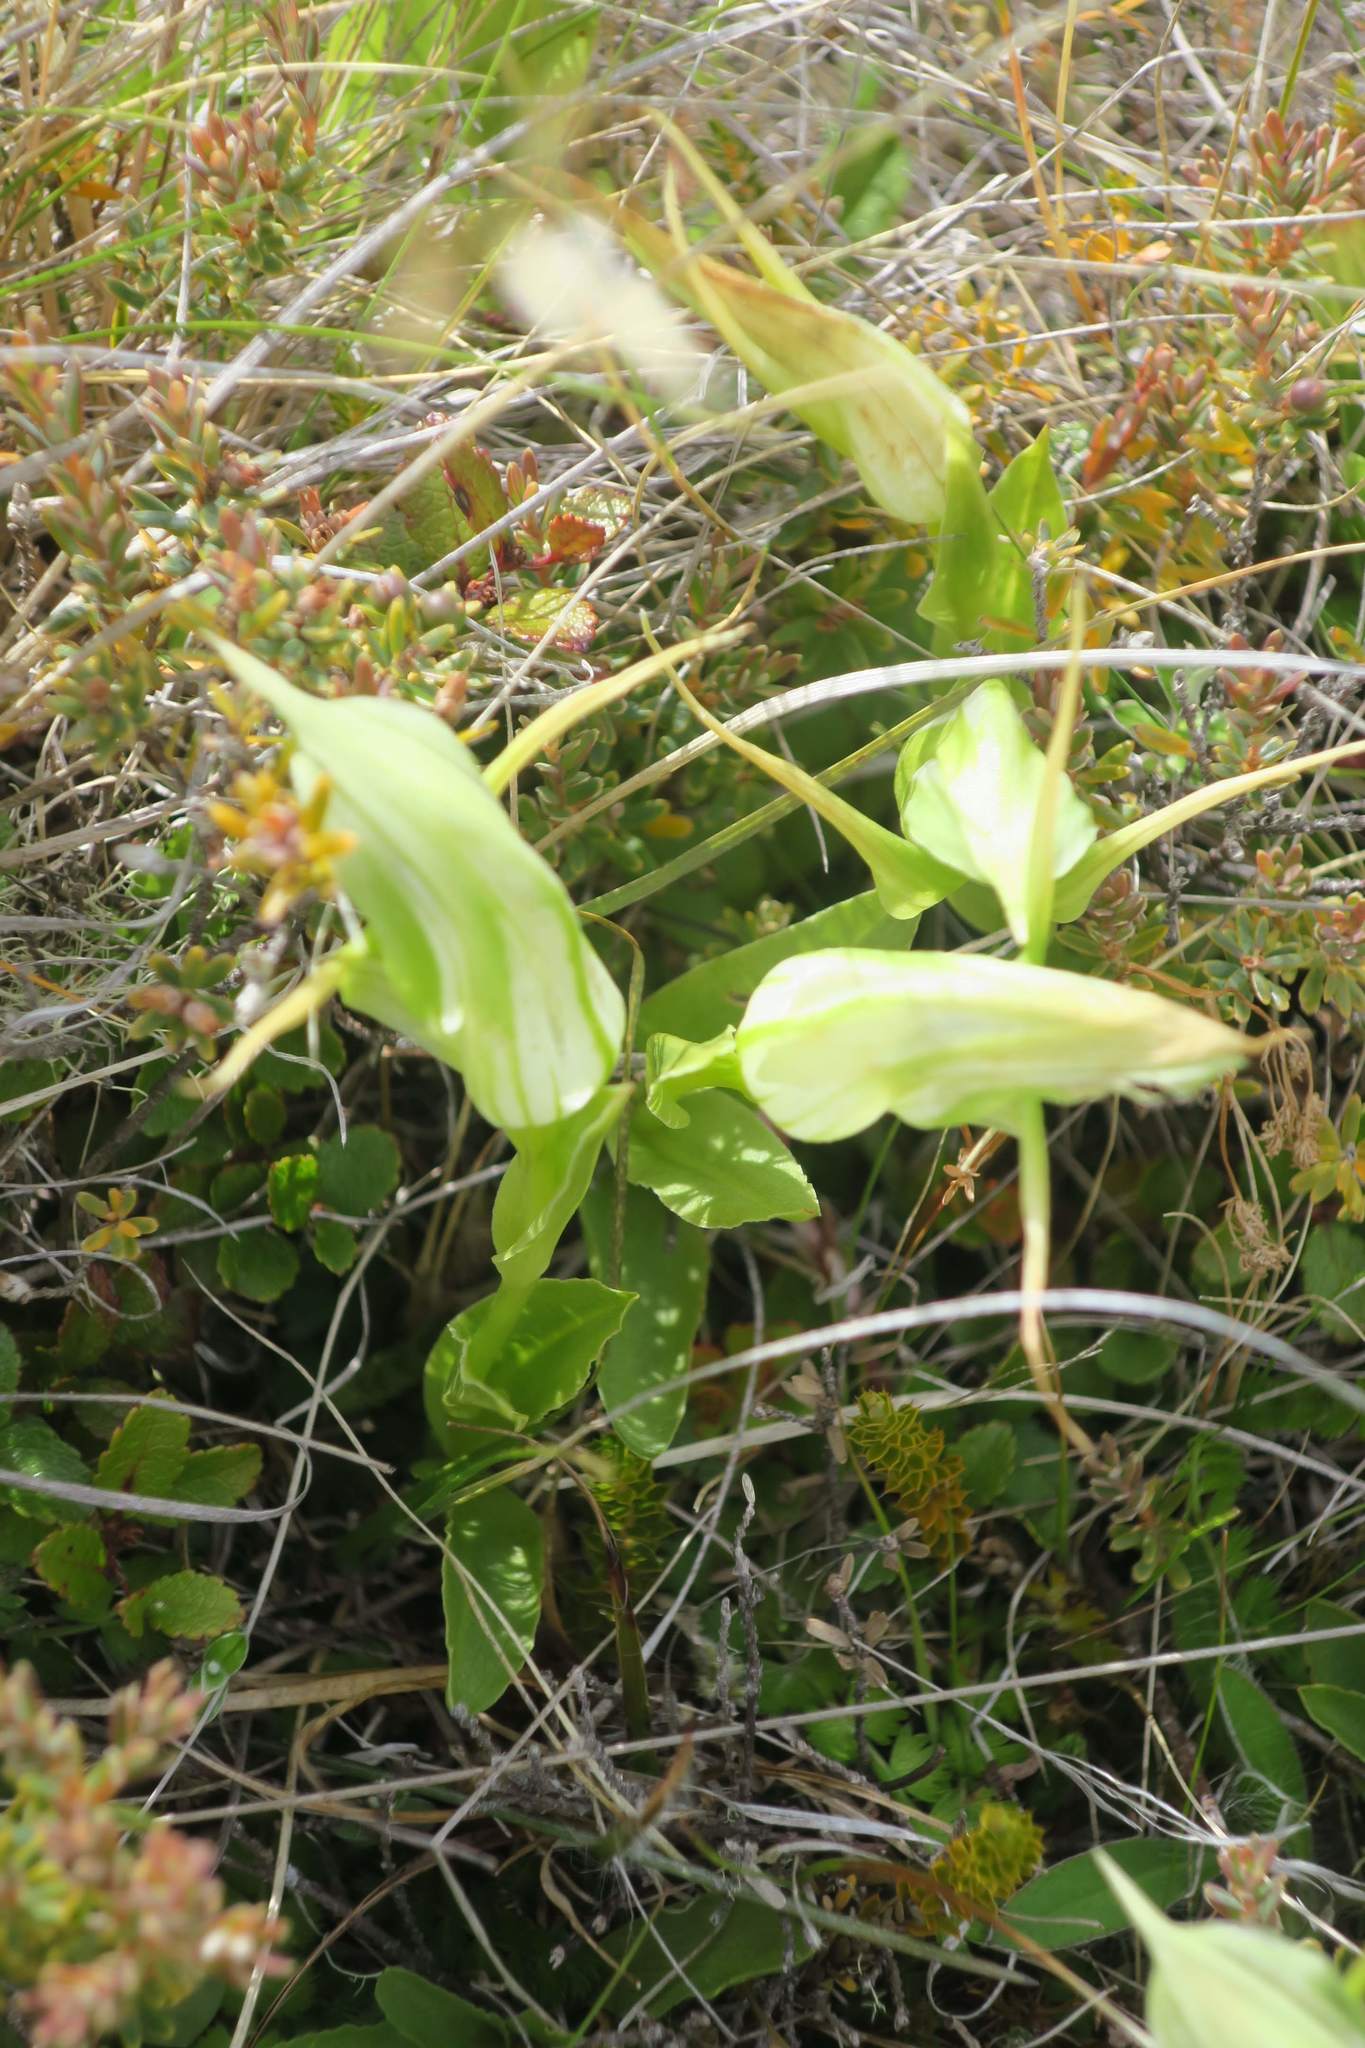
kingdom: Plantae
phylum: Tracheophyta
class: Liliopsida
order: Asparagales
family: Orchidaceae
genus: Pterostylis
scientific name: Pterostylis australis
